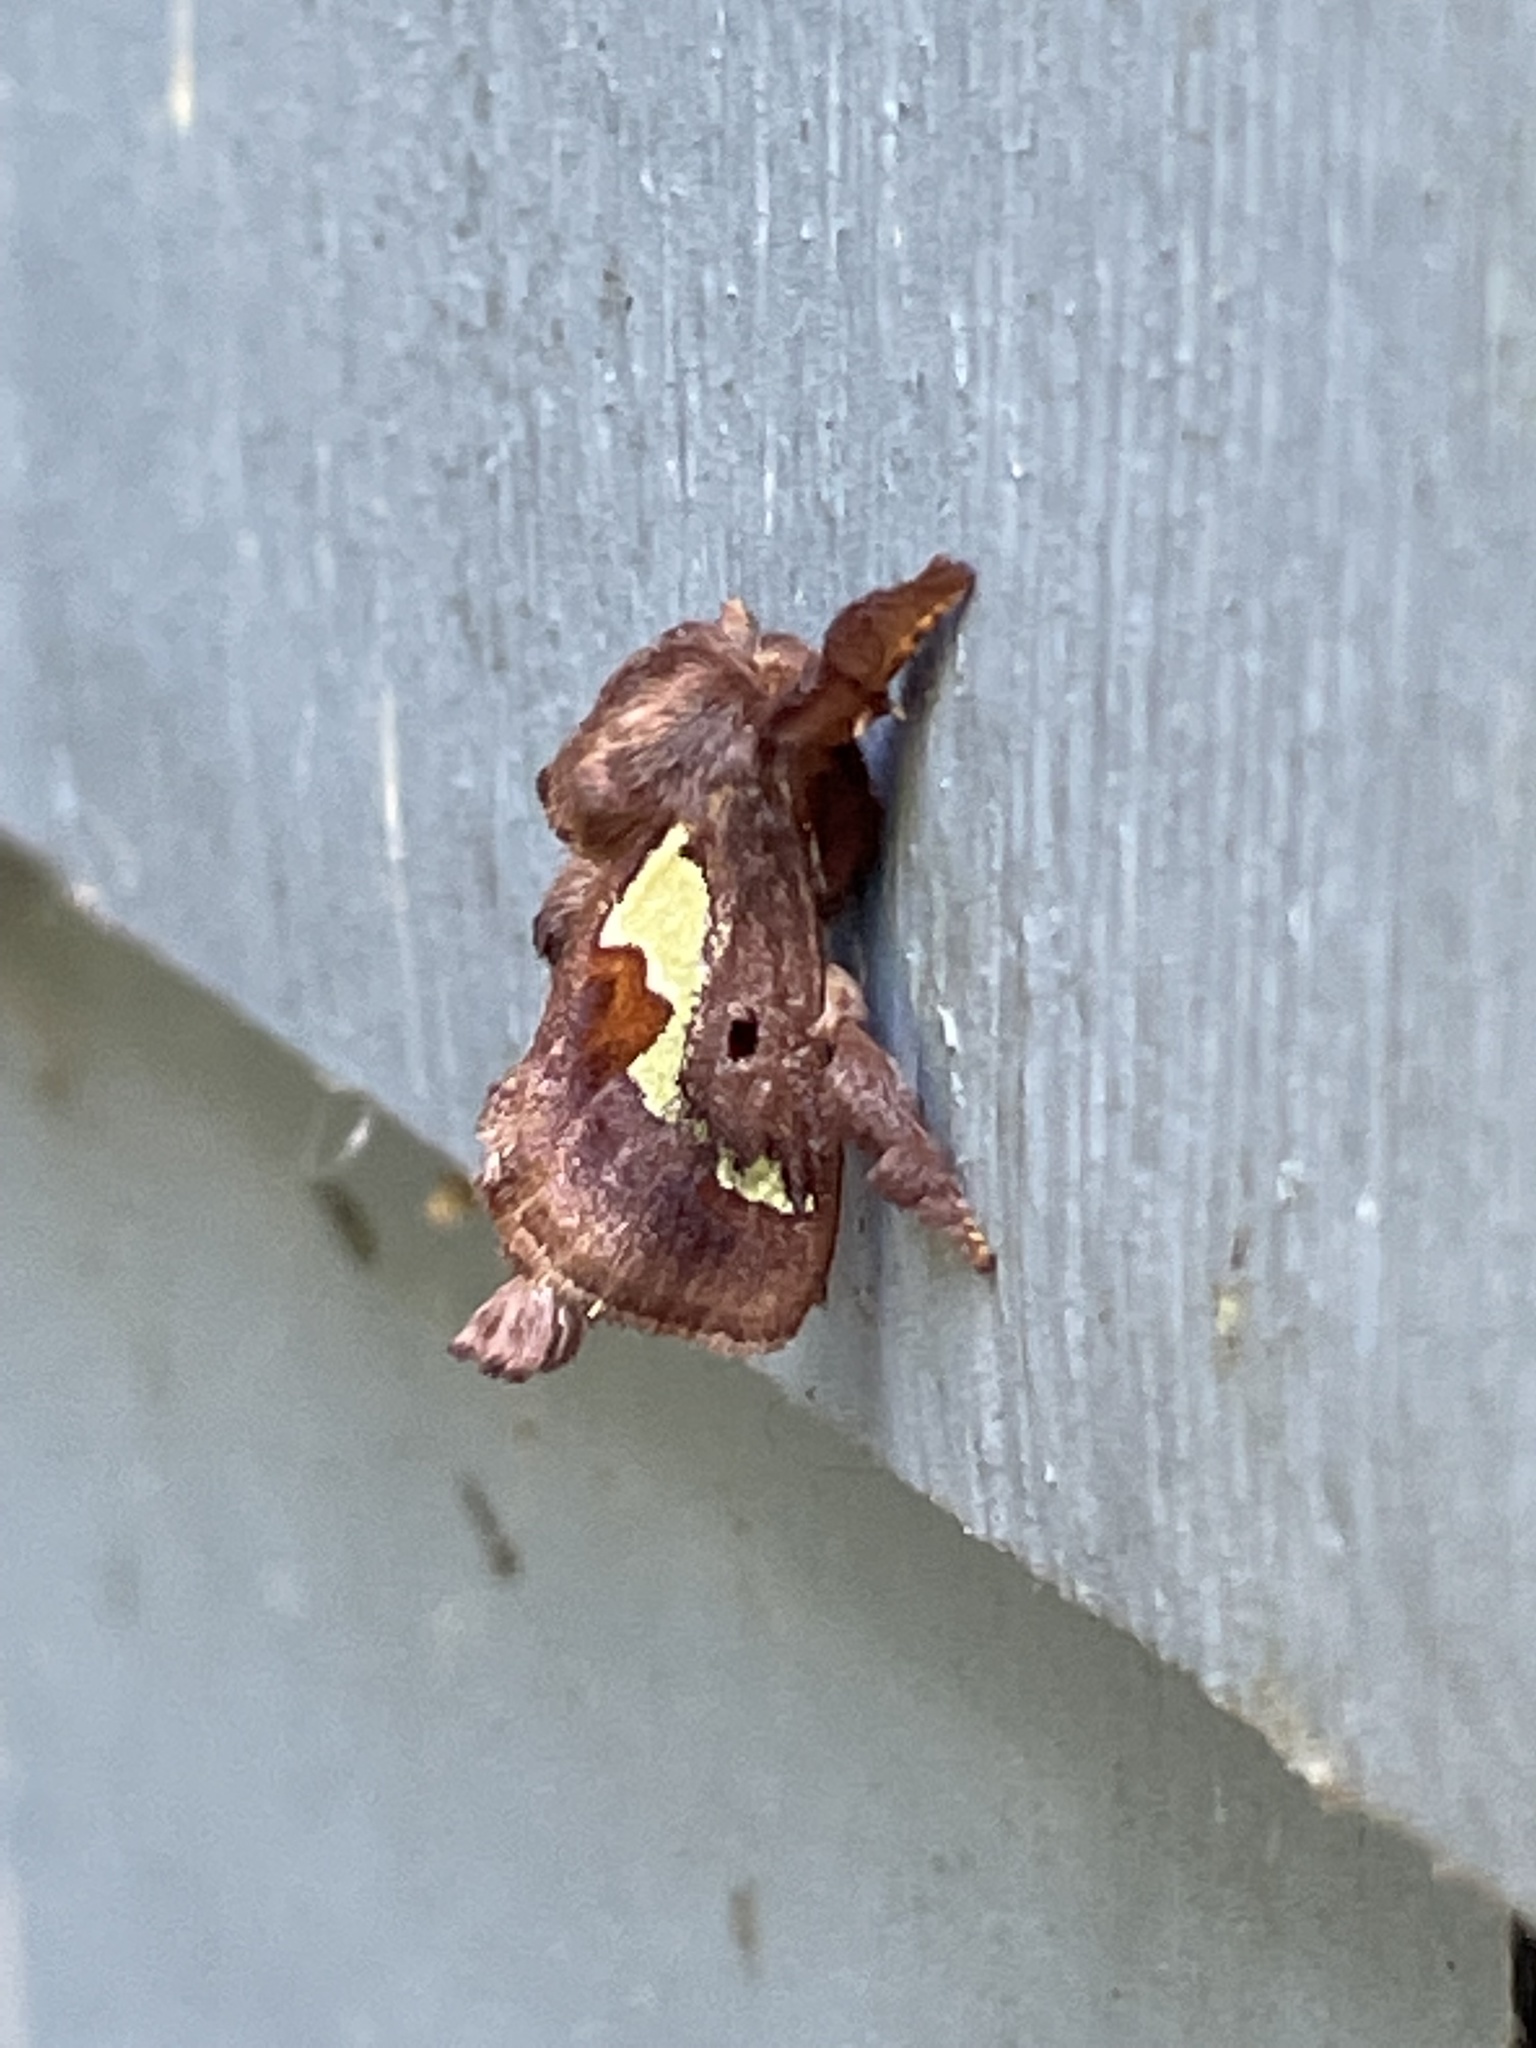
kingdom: Animalia
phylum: Arthropoda
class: Insecta
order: Lepidoptera
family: Limacodidae
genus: Euclea
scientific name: Euclea delphinii
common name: Spiny oak-slug moth
